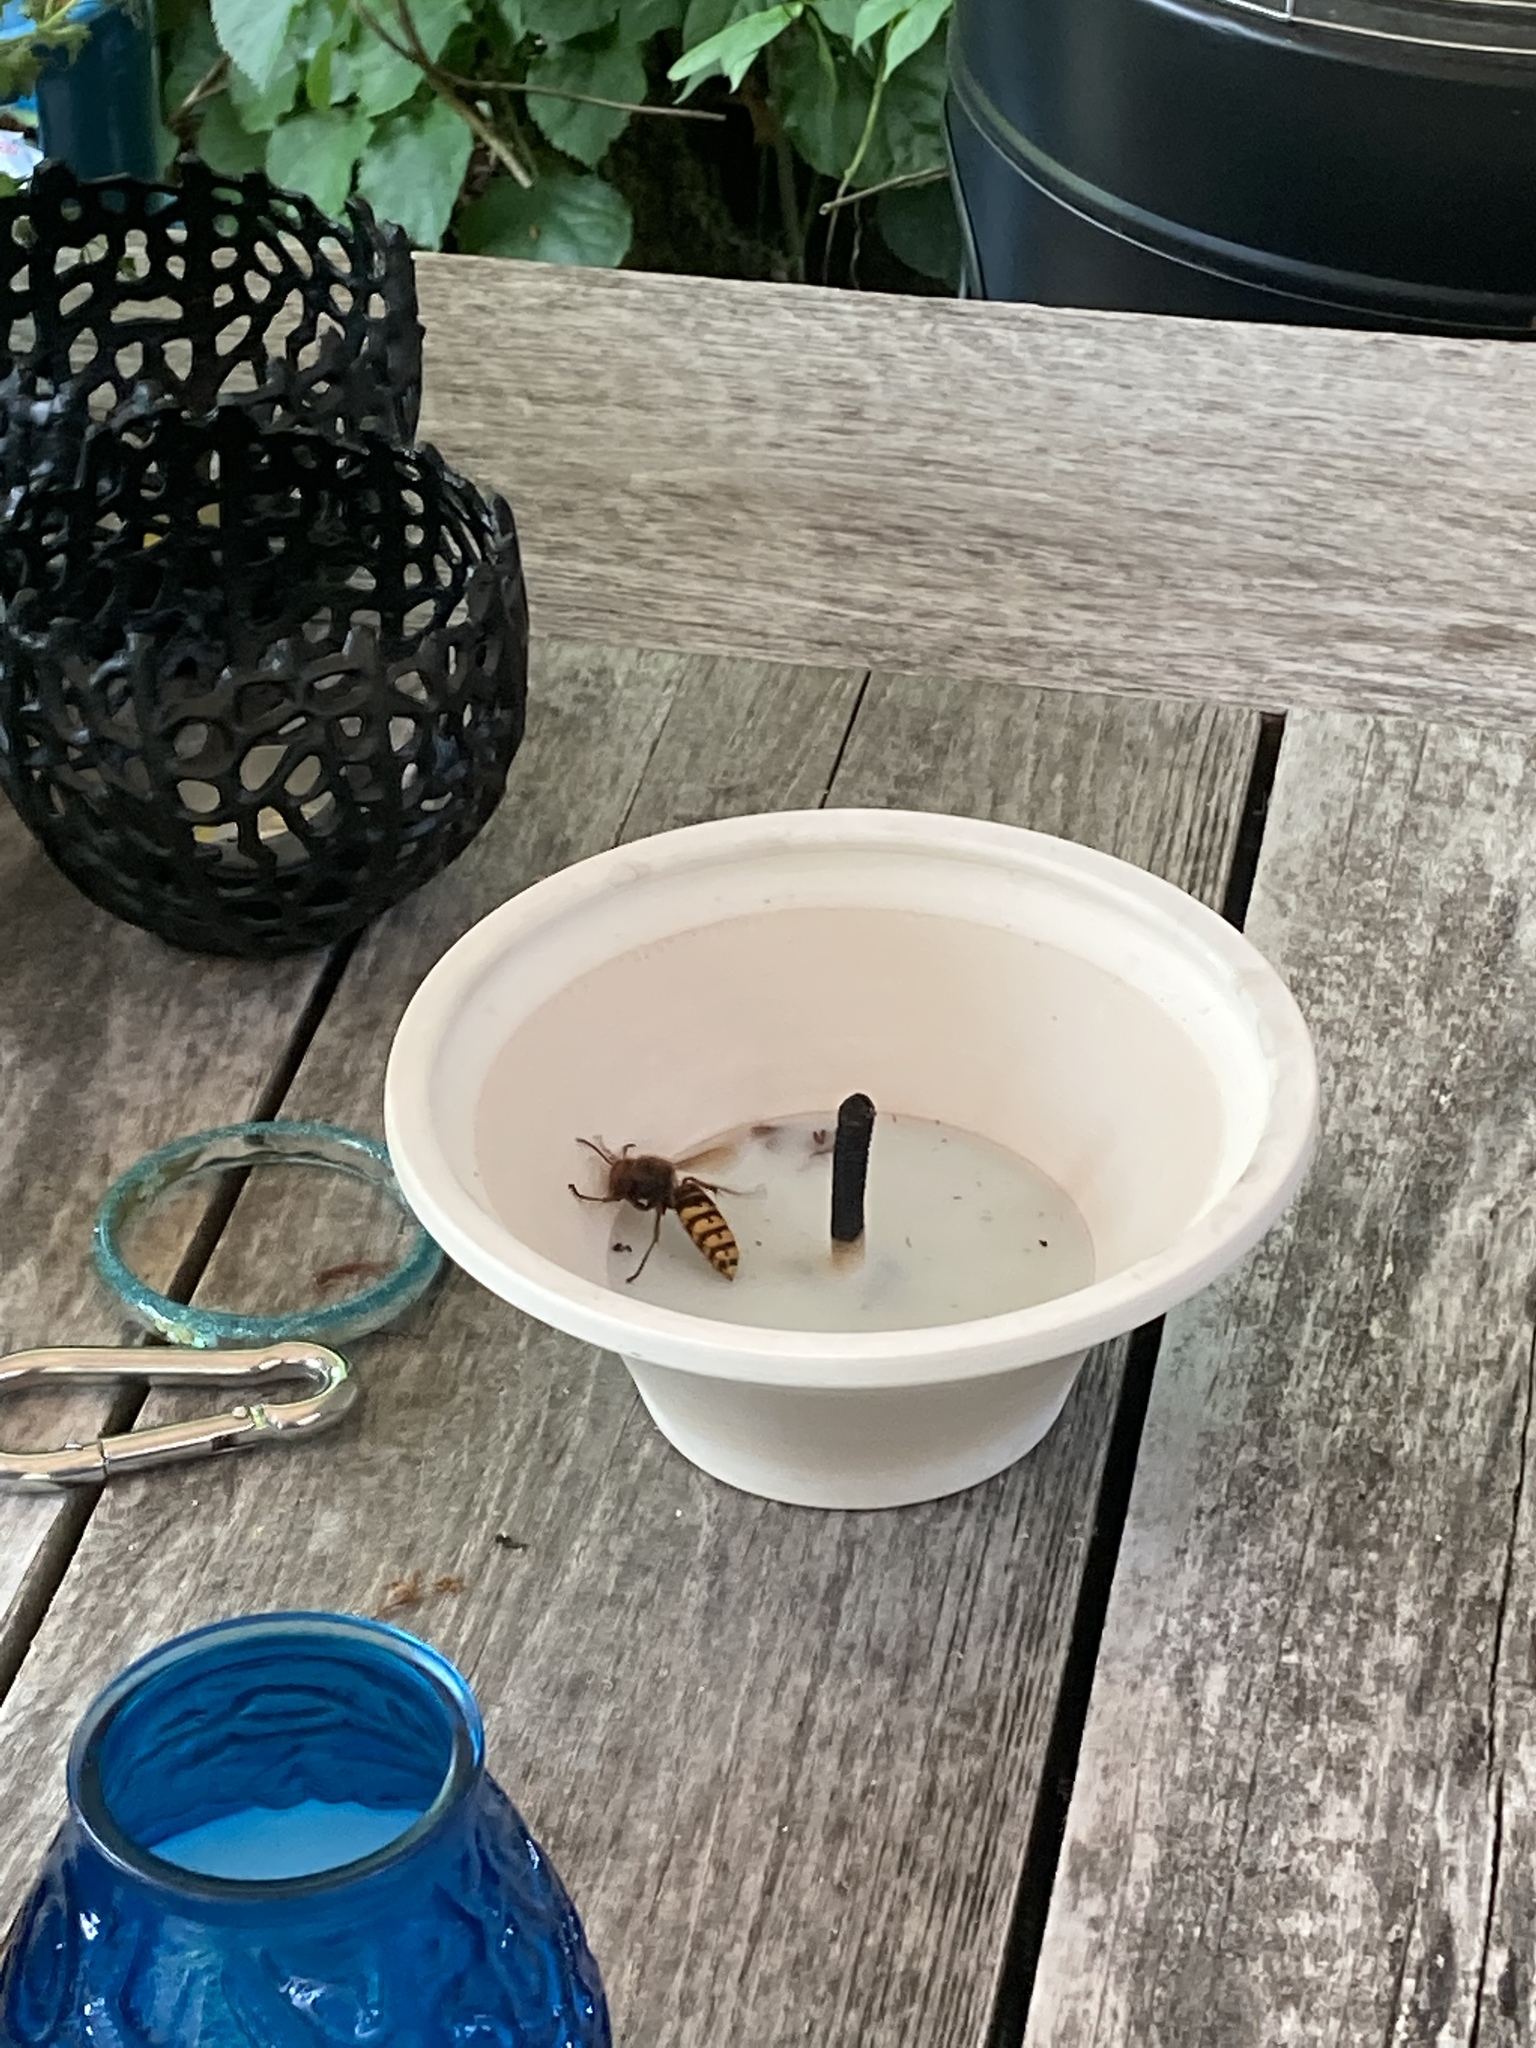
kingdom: Animalia
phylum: Arthropoda
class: Insecta
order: Hymenoptera
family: Vespidae
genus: Vespa
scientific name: Vespa crabro
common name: Hornet
